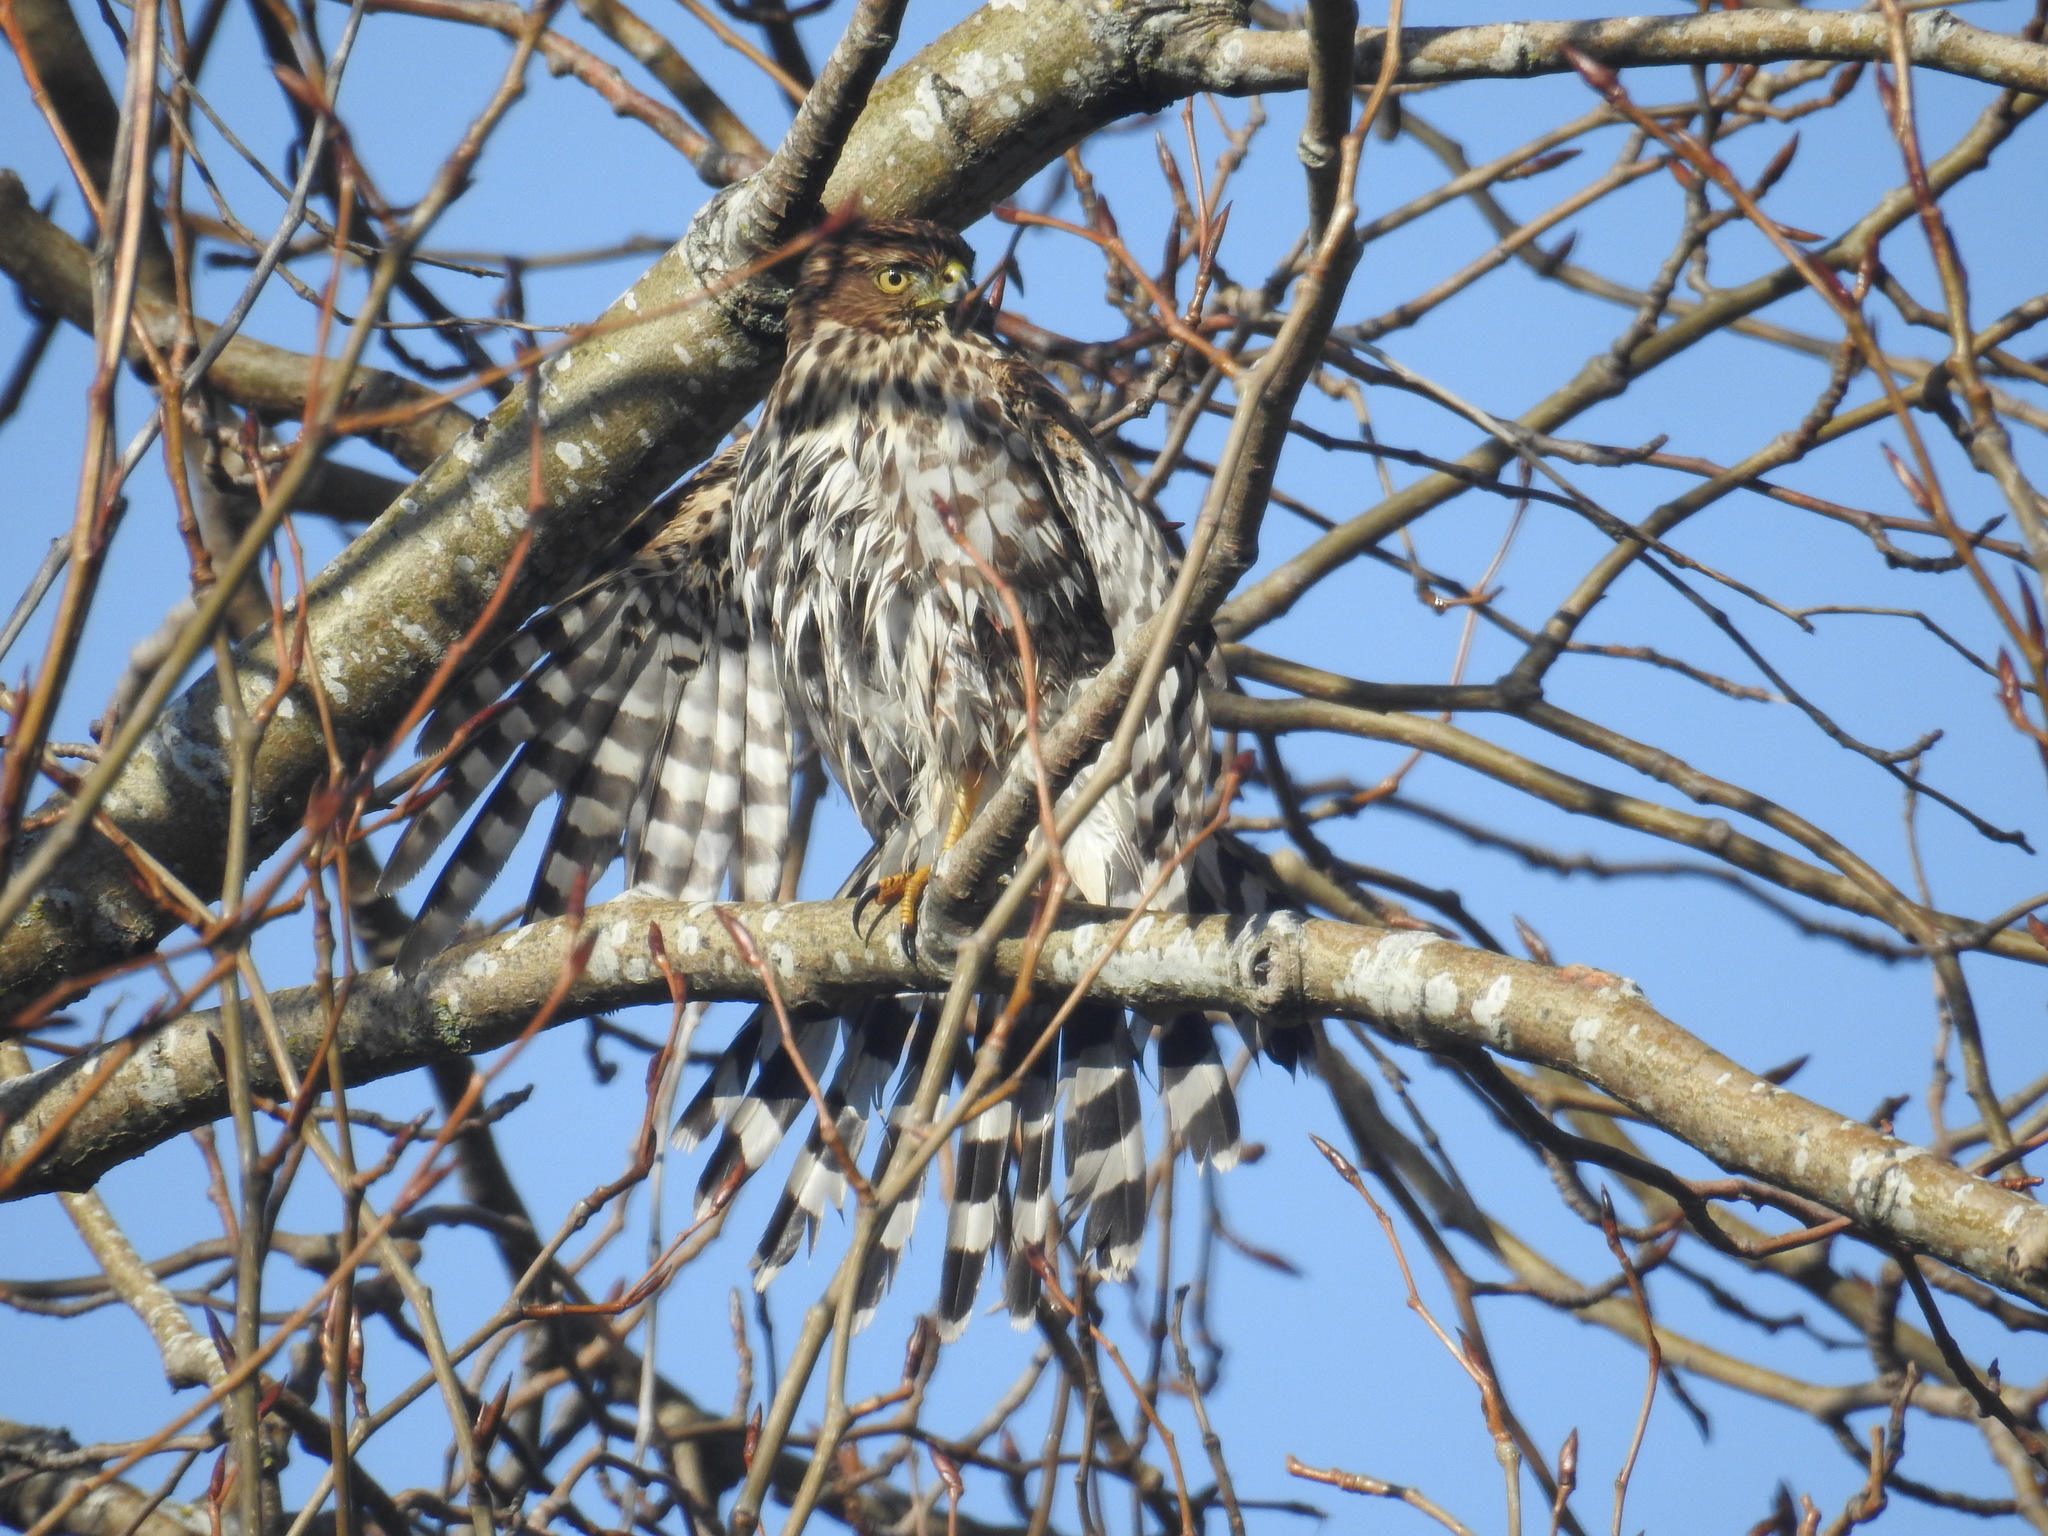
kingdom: Animalia
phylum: Chordata
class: Aves
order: Accipitriformes
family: Accipitridae
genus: Accipiter
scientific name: Accipiter cooperii
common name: Cooper's hawk
